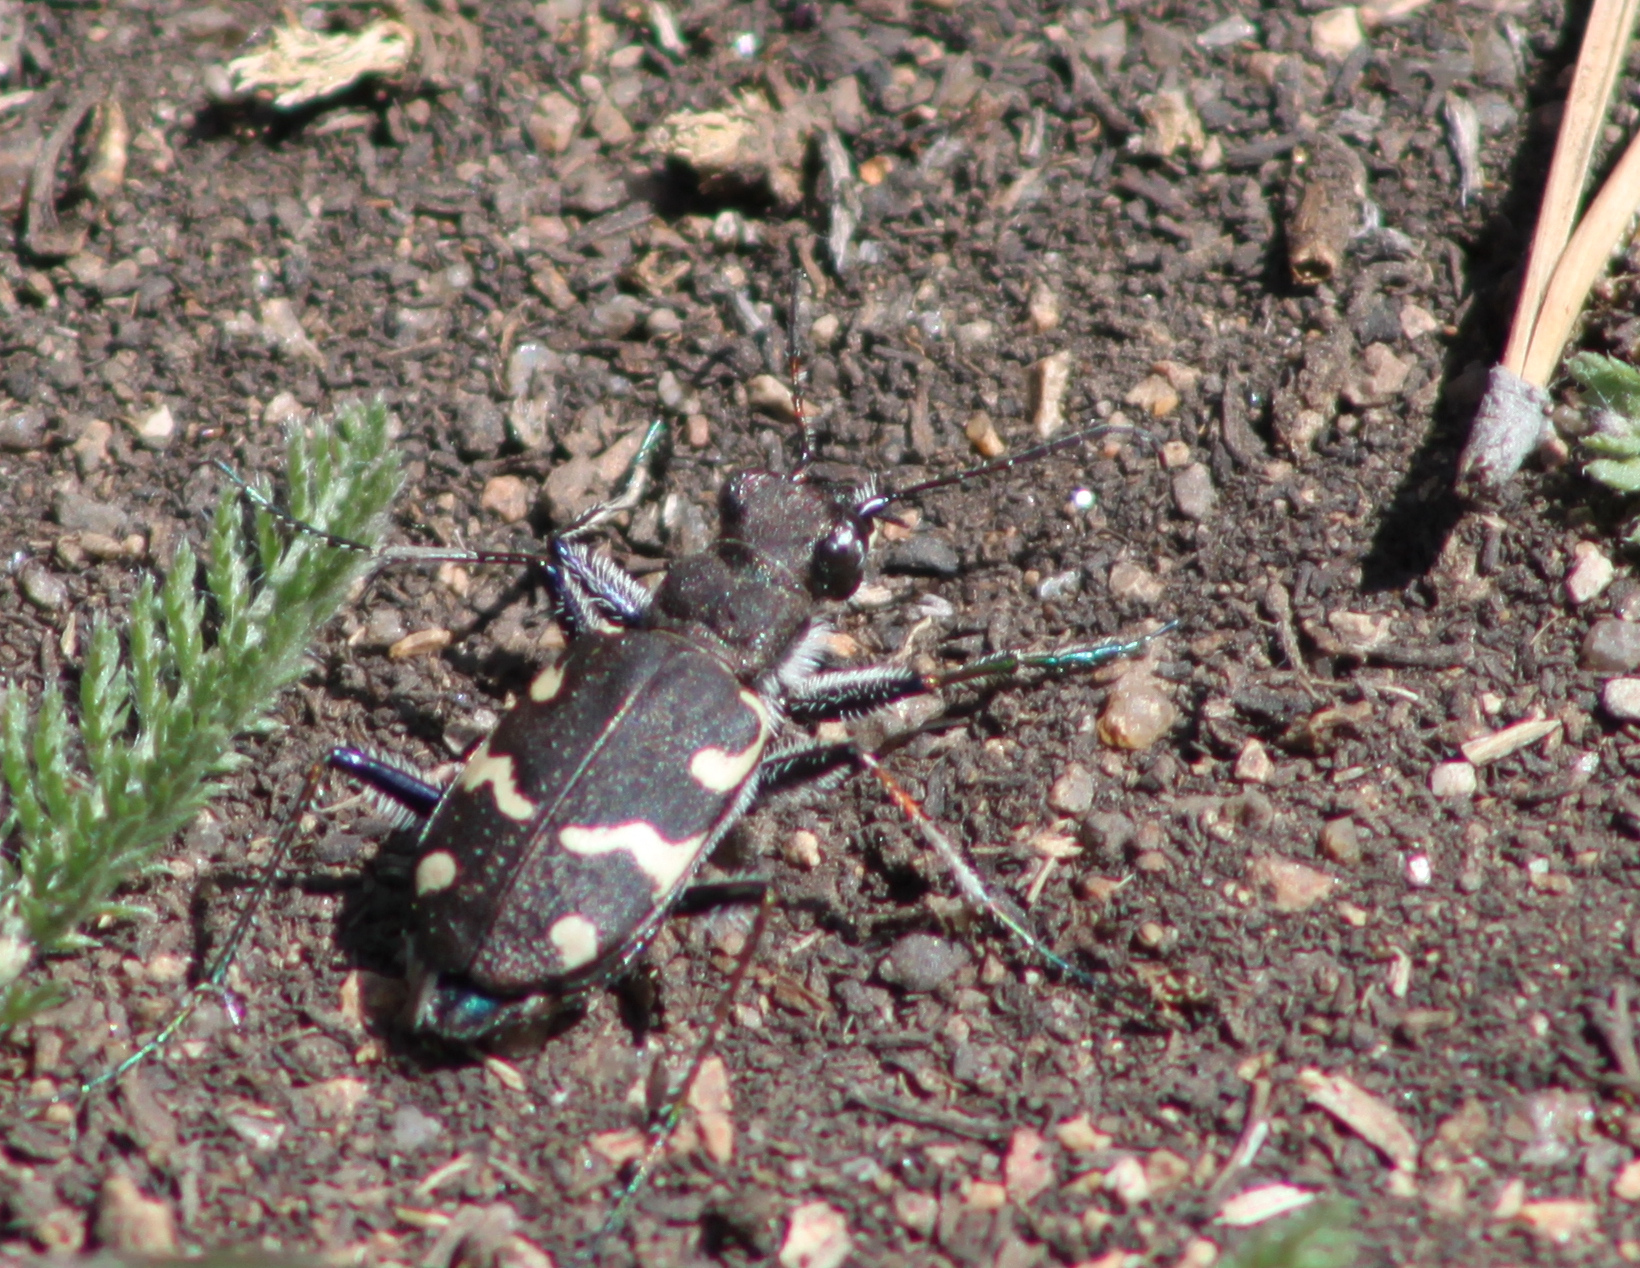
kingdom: Animalia
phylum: Arthropoda
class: Insecta
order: Coleoptera
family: Carabidae
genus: Cicindela
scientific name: Cicindela sylvatica
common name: Heath tiger beetle
